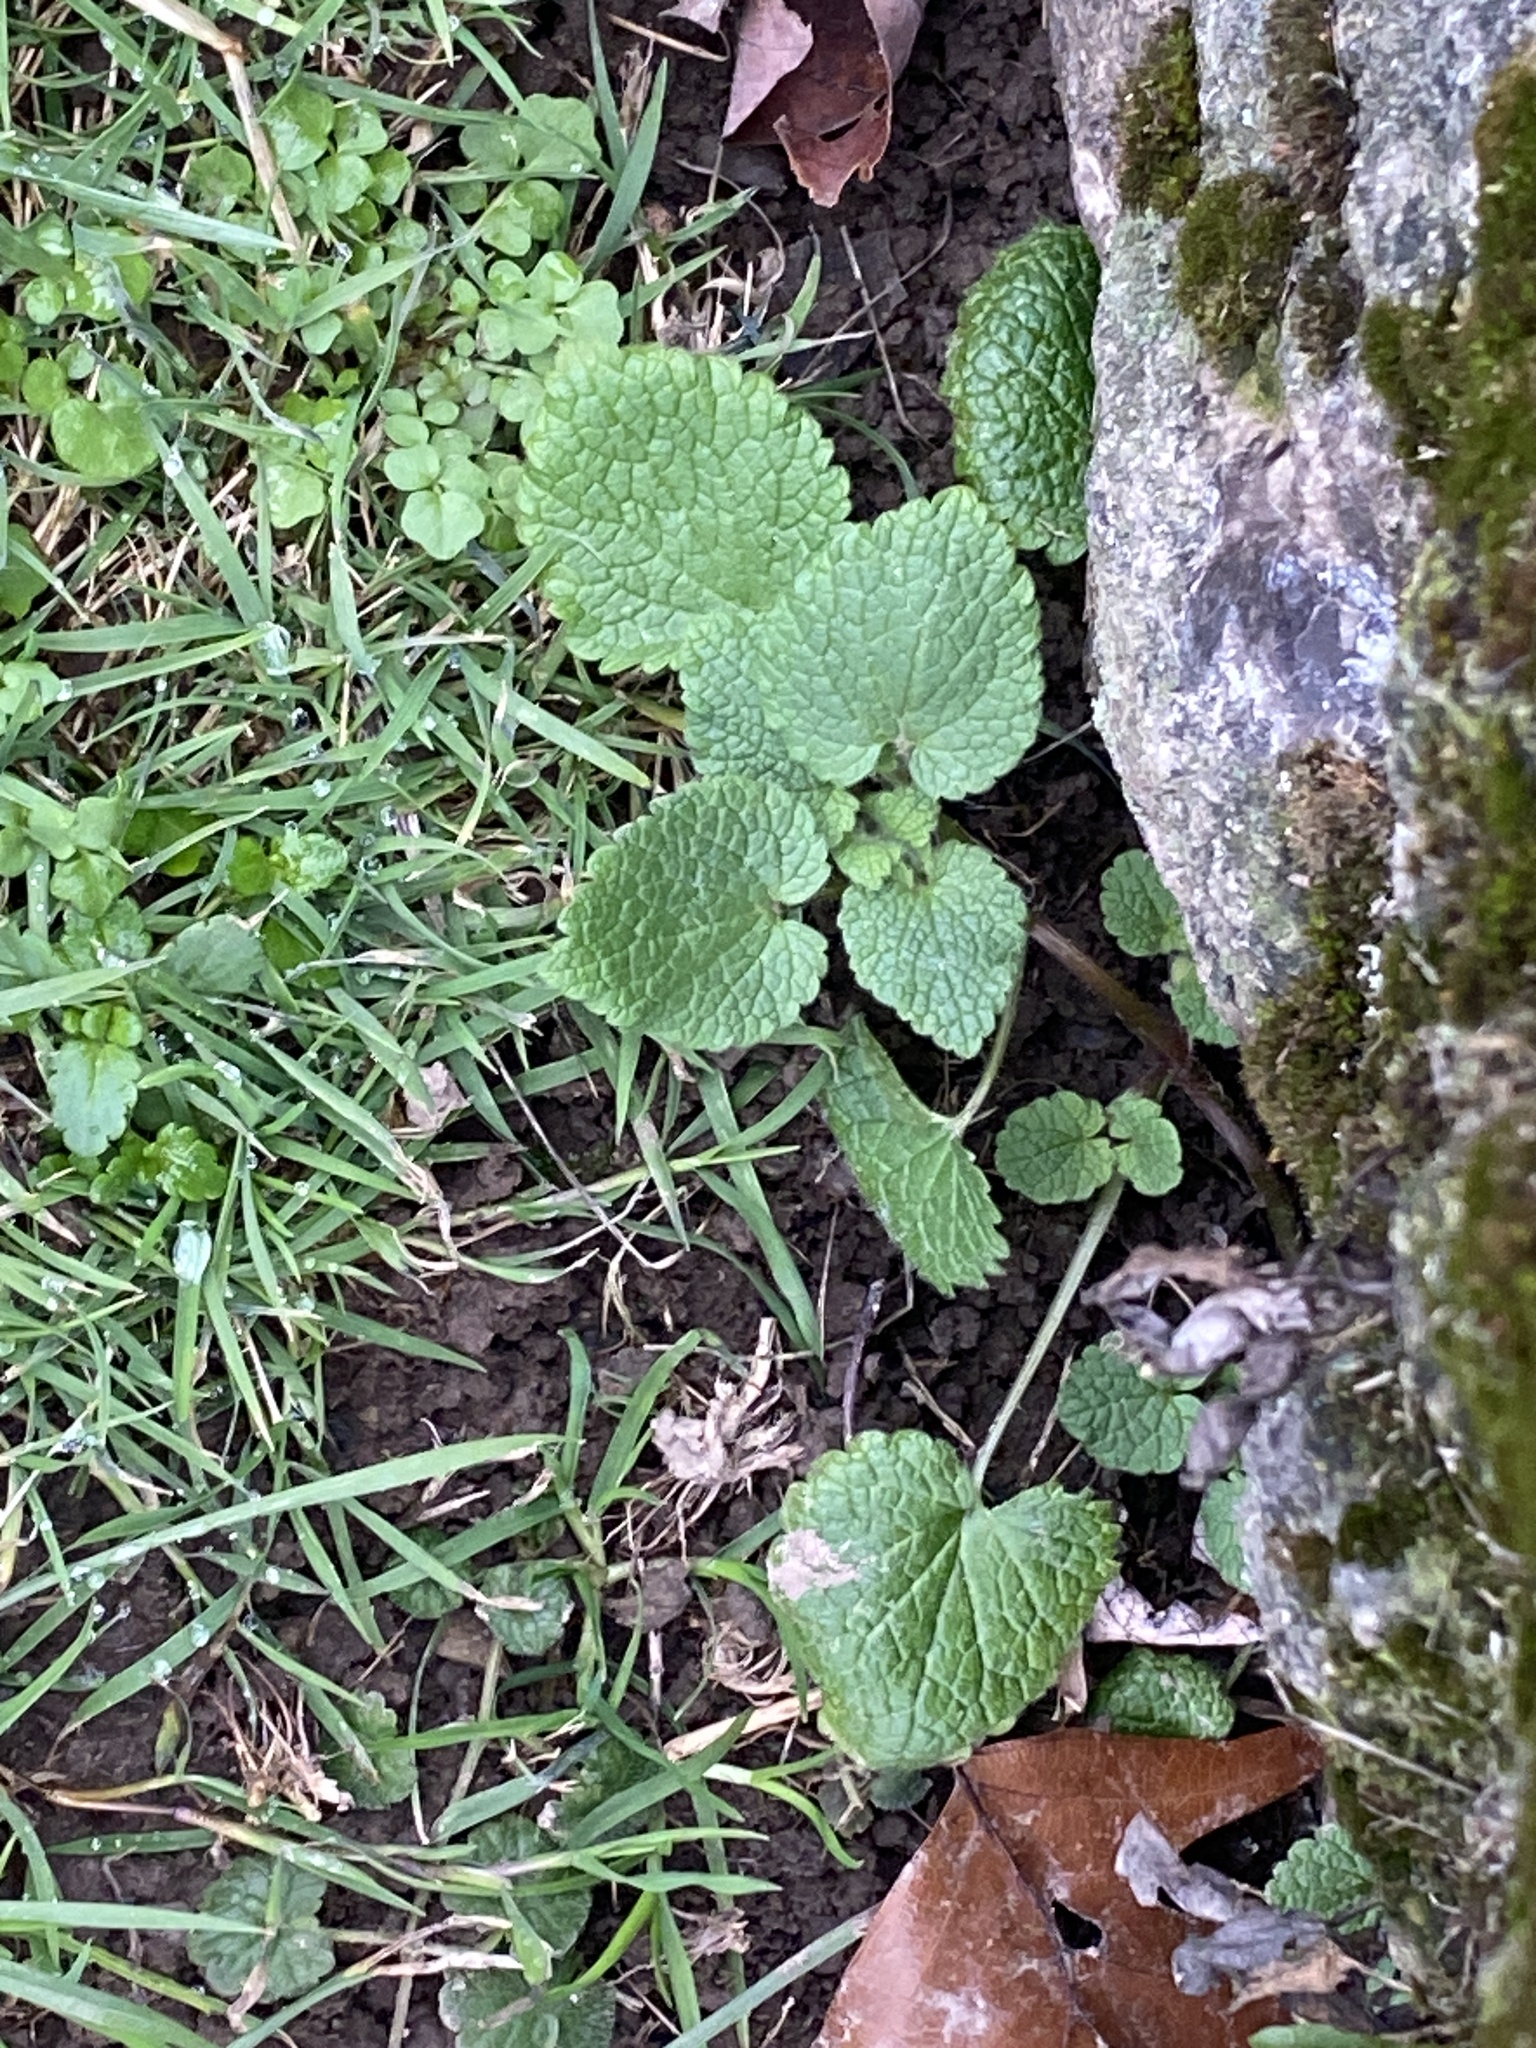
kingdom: Plantae
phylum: Tracheophyta
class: Magnoliopsida
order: Lamiales
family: Lamiaceae
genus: Lamium
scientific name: Lamium purpureum
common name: Red dead-nettle
